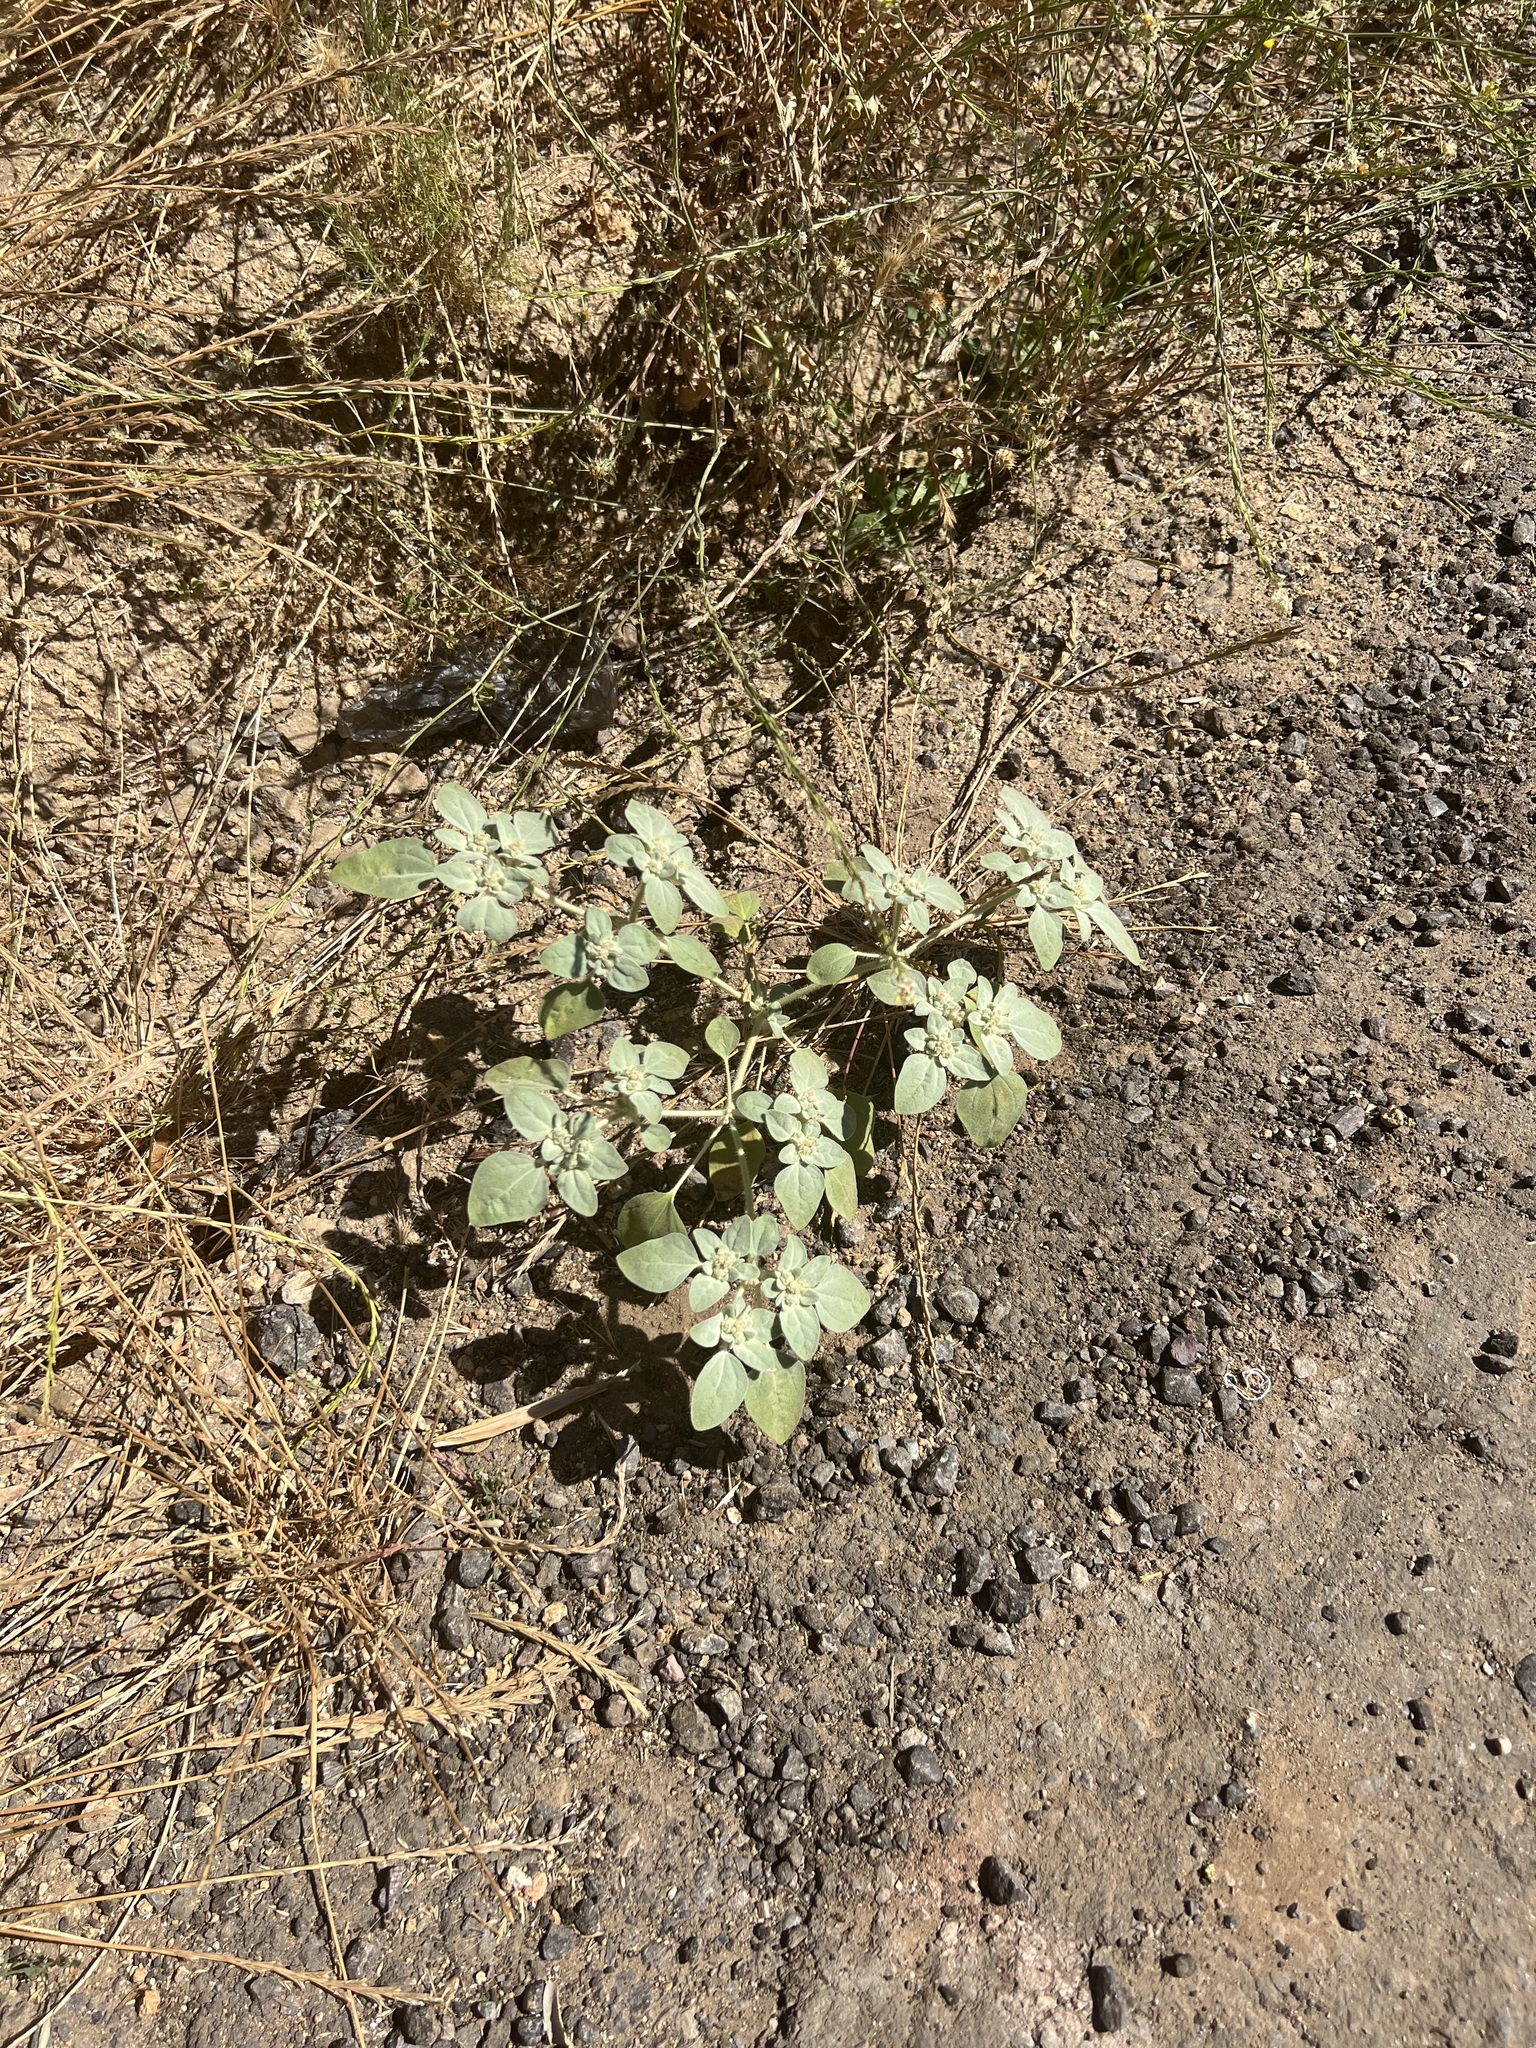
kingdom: Plantae
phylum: Tracheophyta
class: Magnoliopsida
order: Malpighiales
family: Euphorbiaceae
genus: Croton
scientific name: Croton setiger
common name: Dove weed
